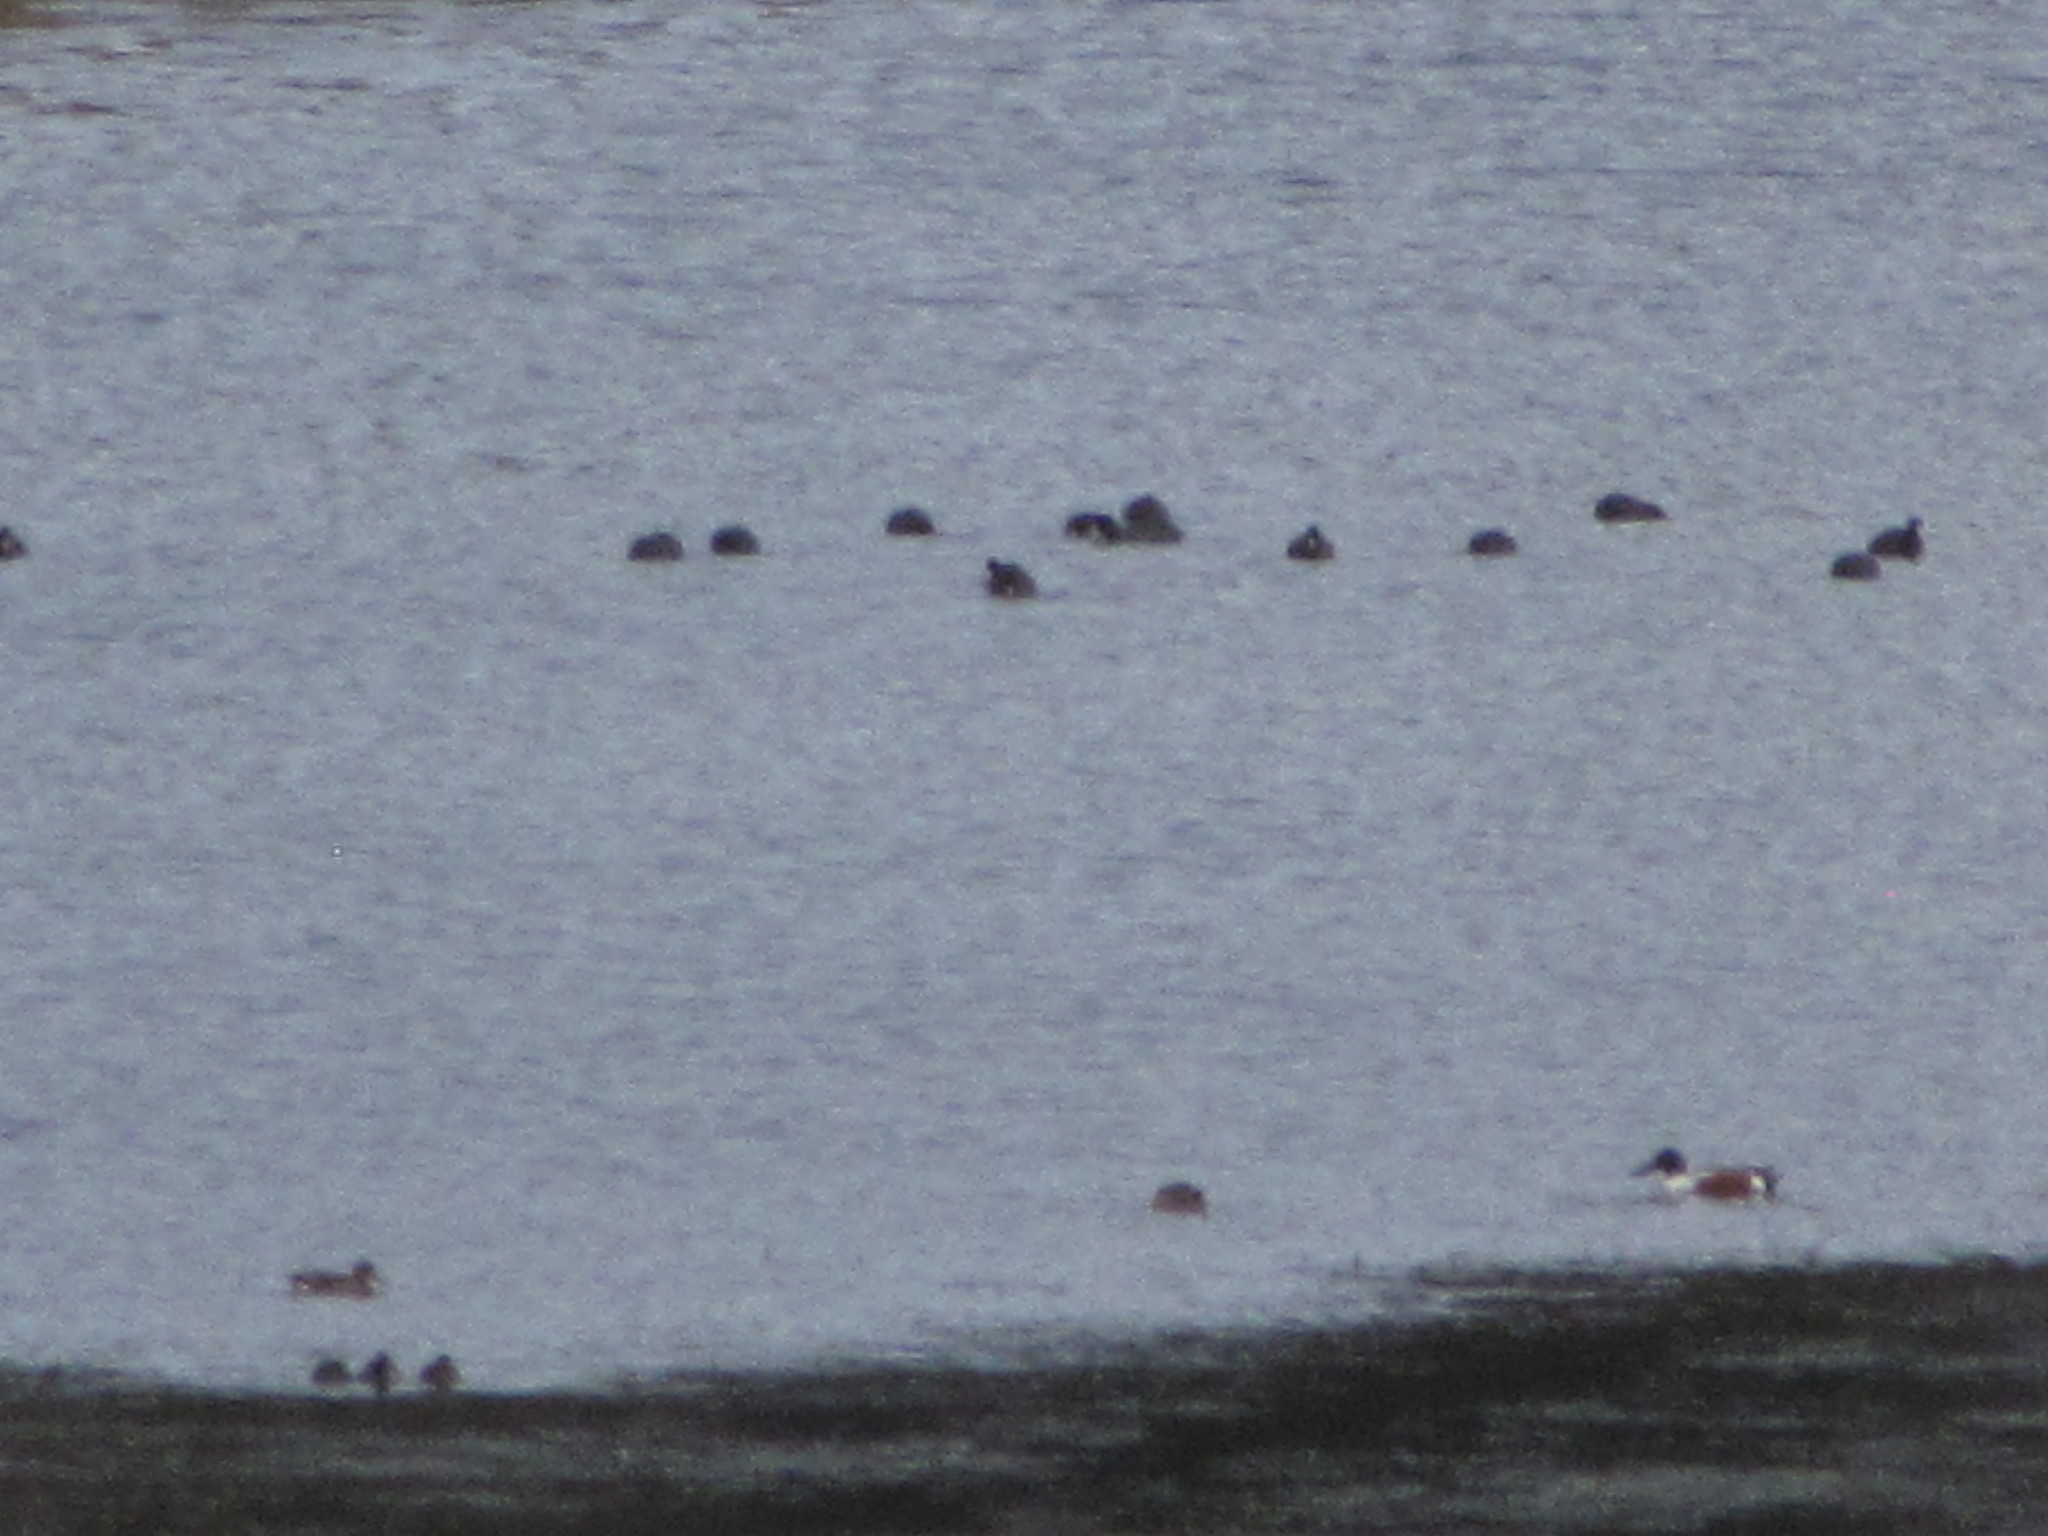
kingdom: Animalia
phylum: Chordata
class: Aves
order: Anseriformes
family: Anatidae
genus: Spatula
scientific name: Spatula clypeata
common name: Northern shoveler
